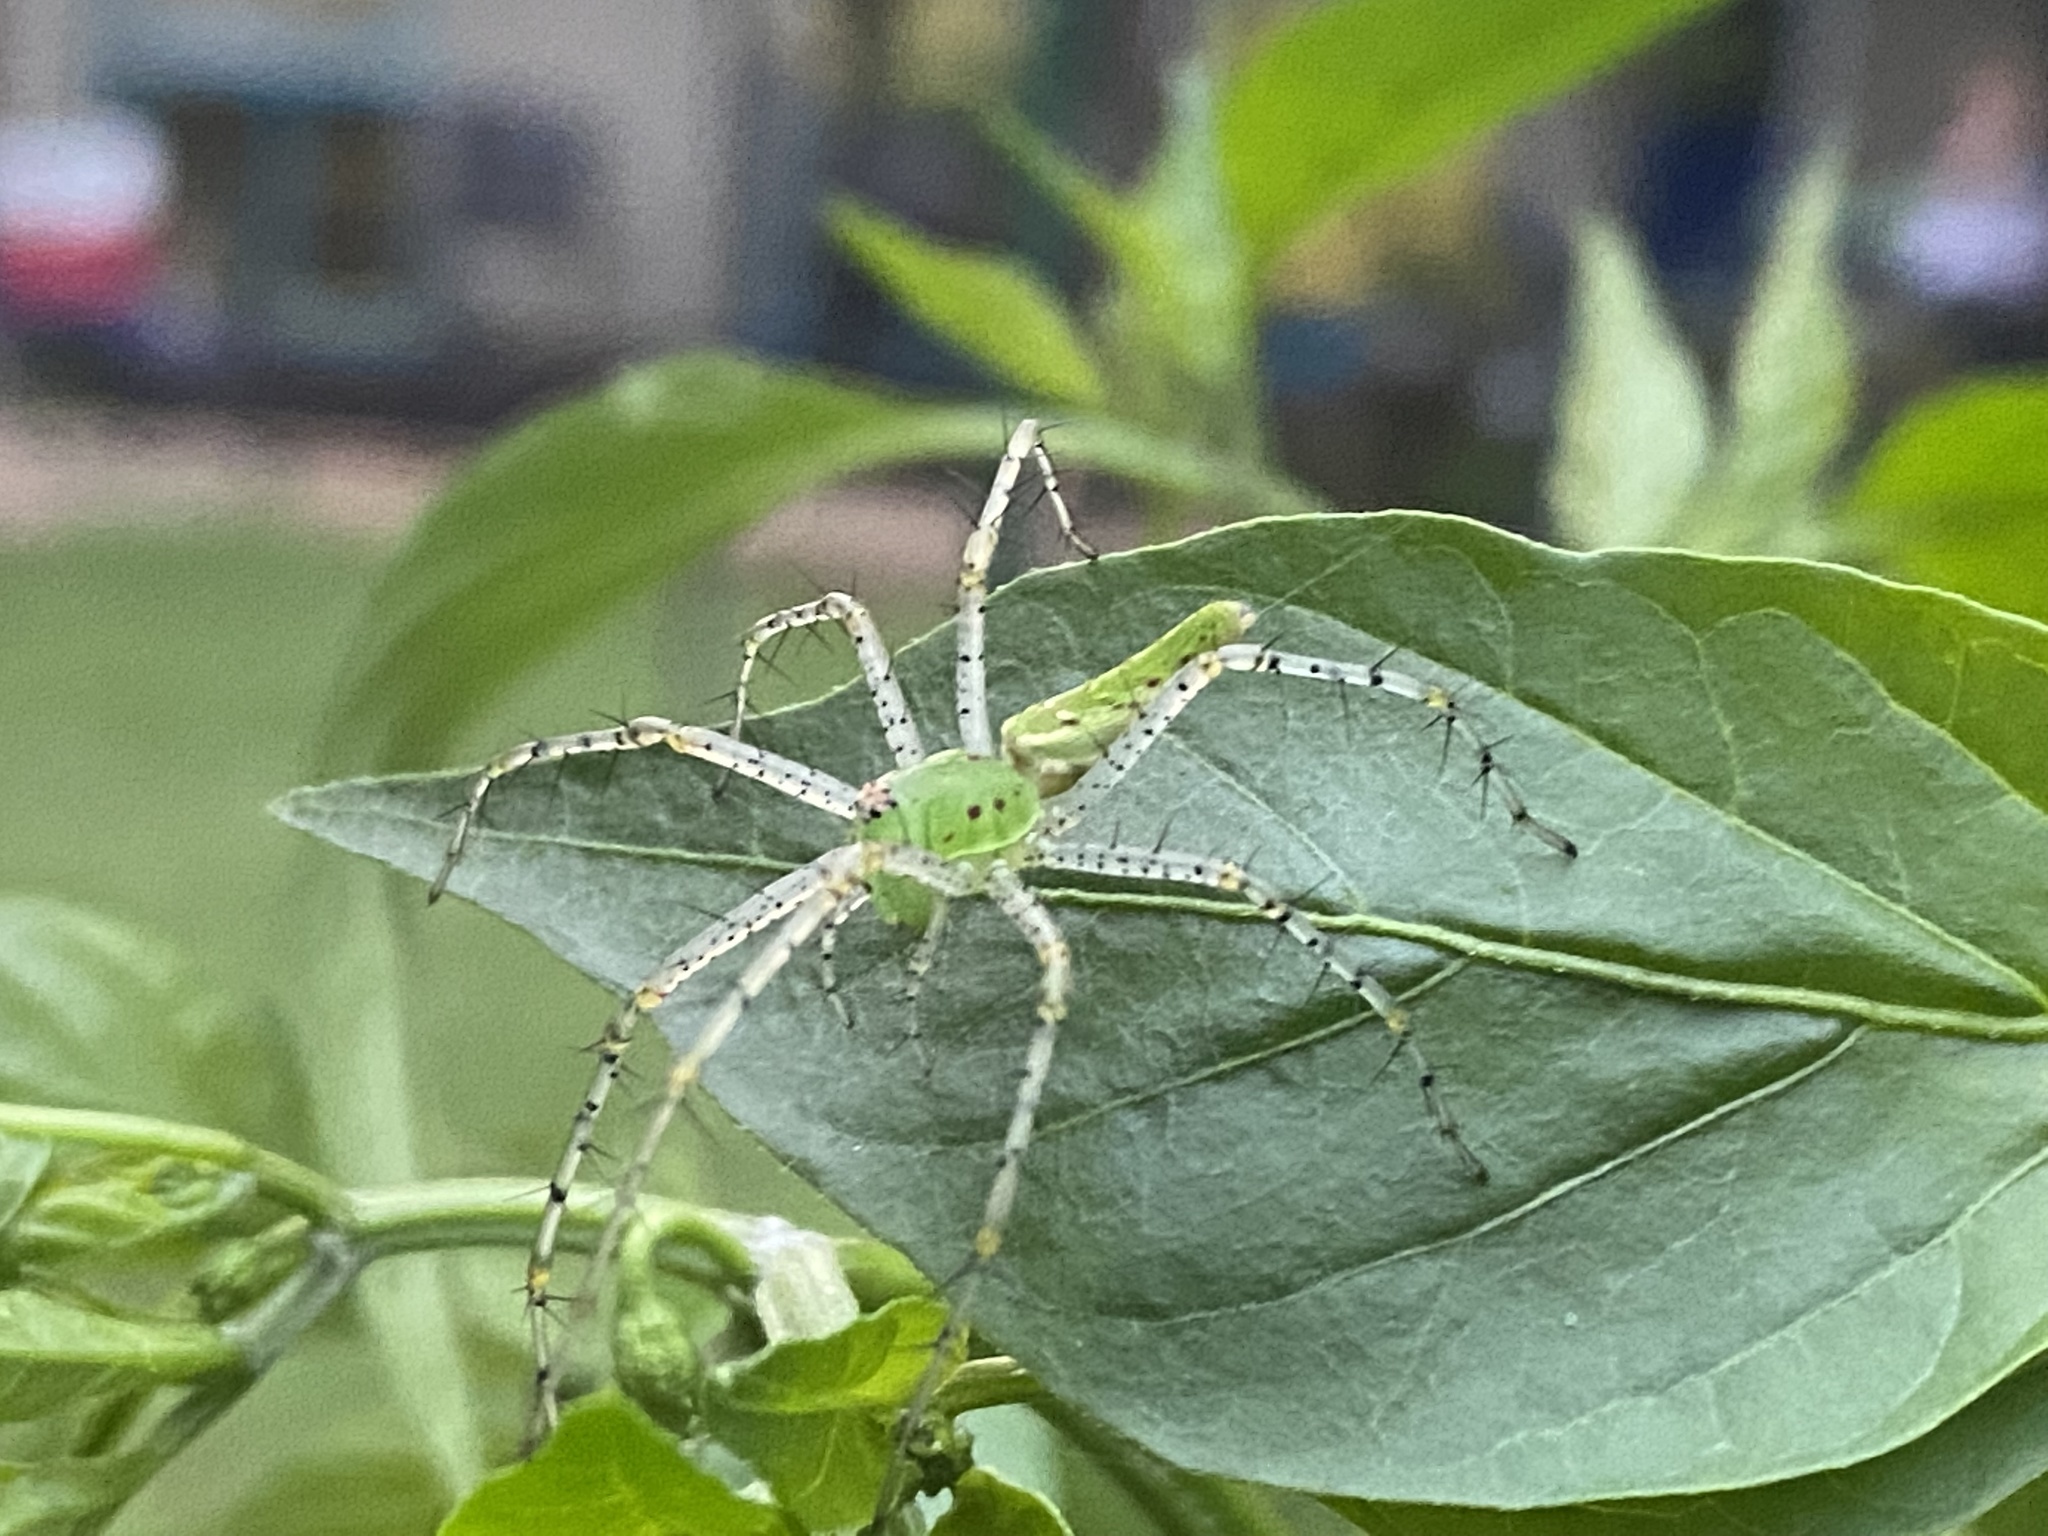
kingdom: Animalia
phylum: Arthropoda
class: Arachnida
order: Araneae
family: Oxyopidae
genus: Peucetia
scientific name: Peucetia viridans
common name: Lynx spiders
